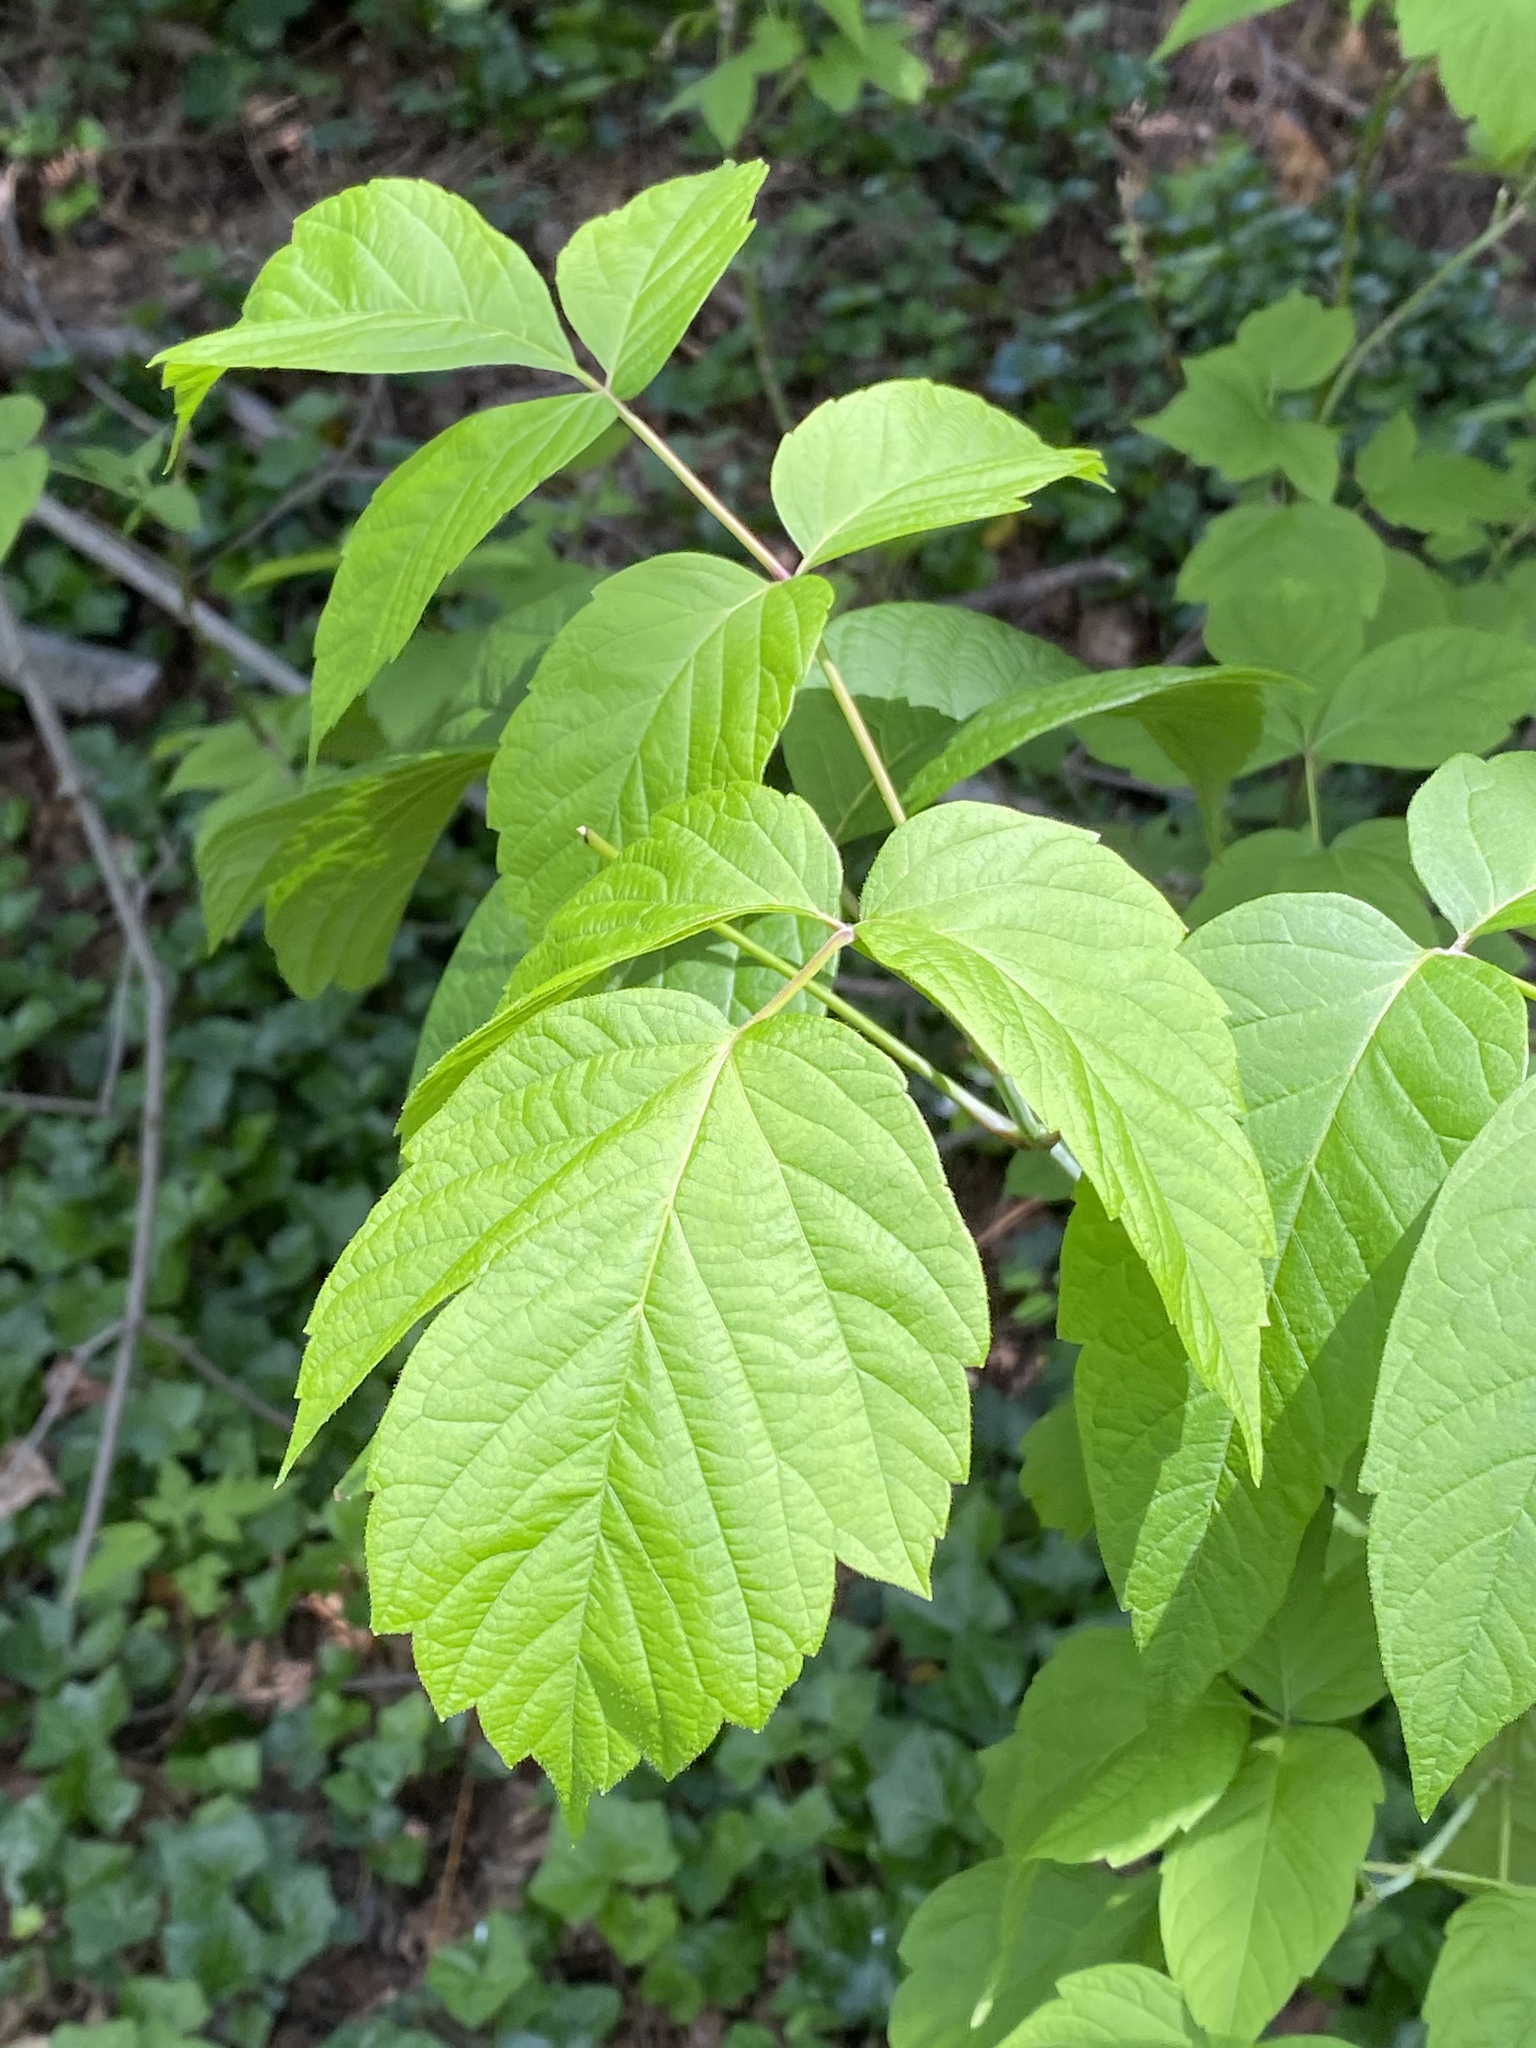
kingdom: Plantae
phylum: Tracheophyta
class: Magnoliopsida
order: Sapindales
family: Sapindaceae
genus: Acer
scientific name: Acer negundo
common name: Ashleaf maple
